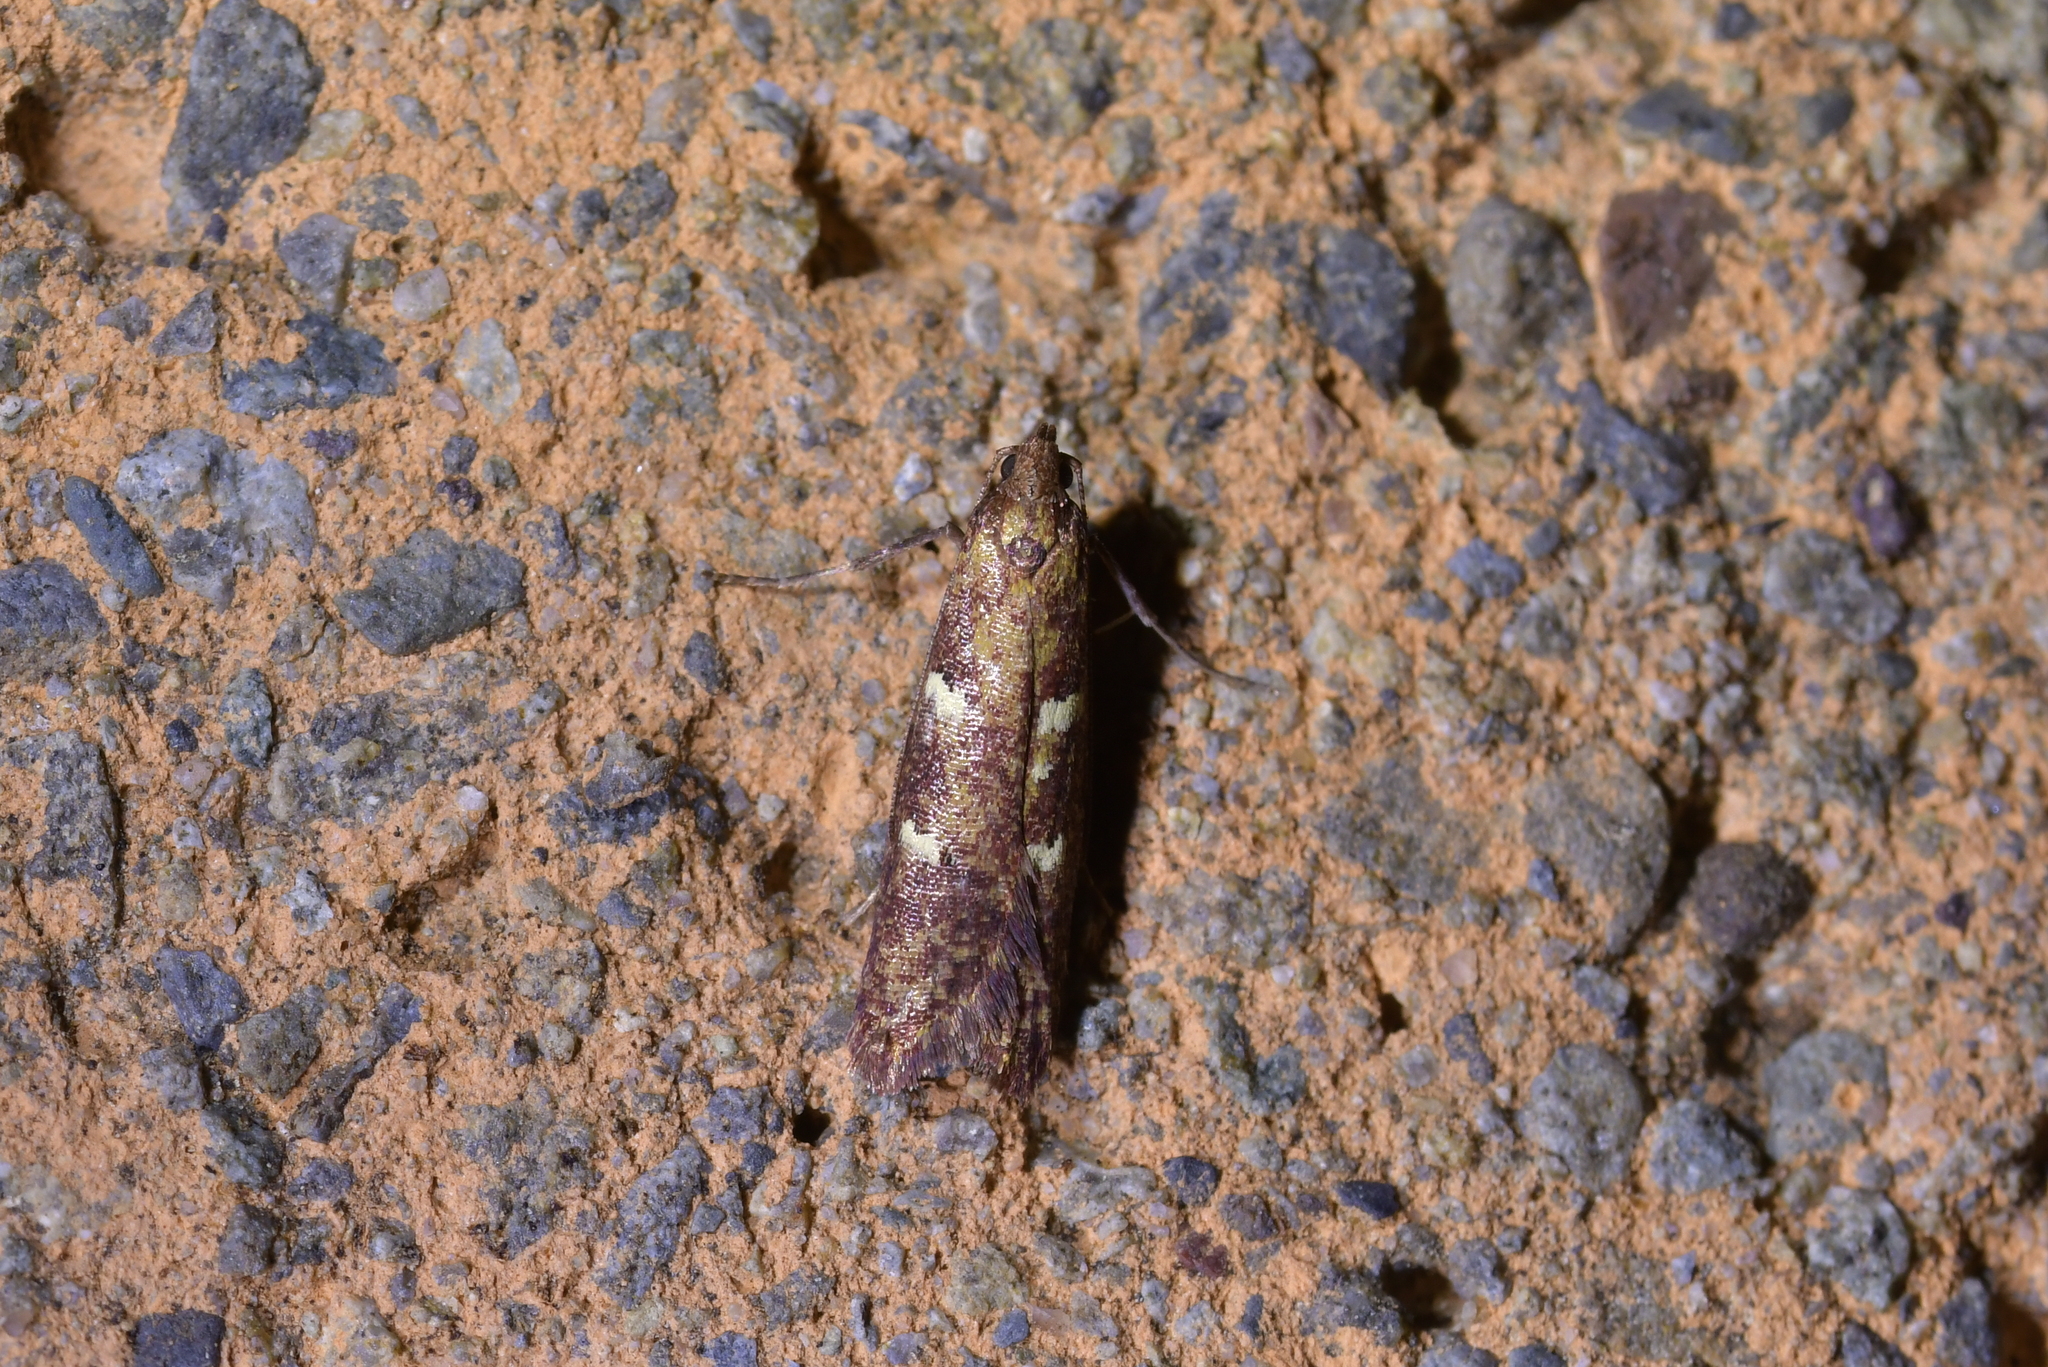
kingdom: Animalia
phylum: Arthropoda
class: Insecta
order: Lepidoptera
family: Plutellidae
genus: Cadmogenes
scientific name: Cadmogenes literata
